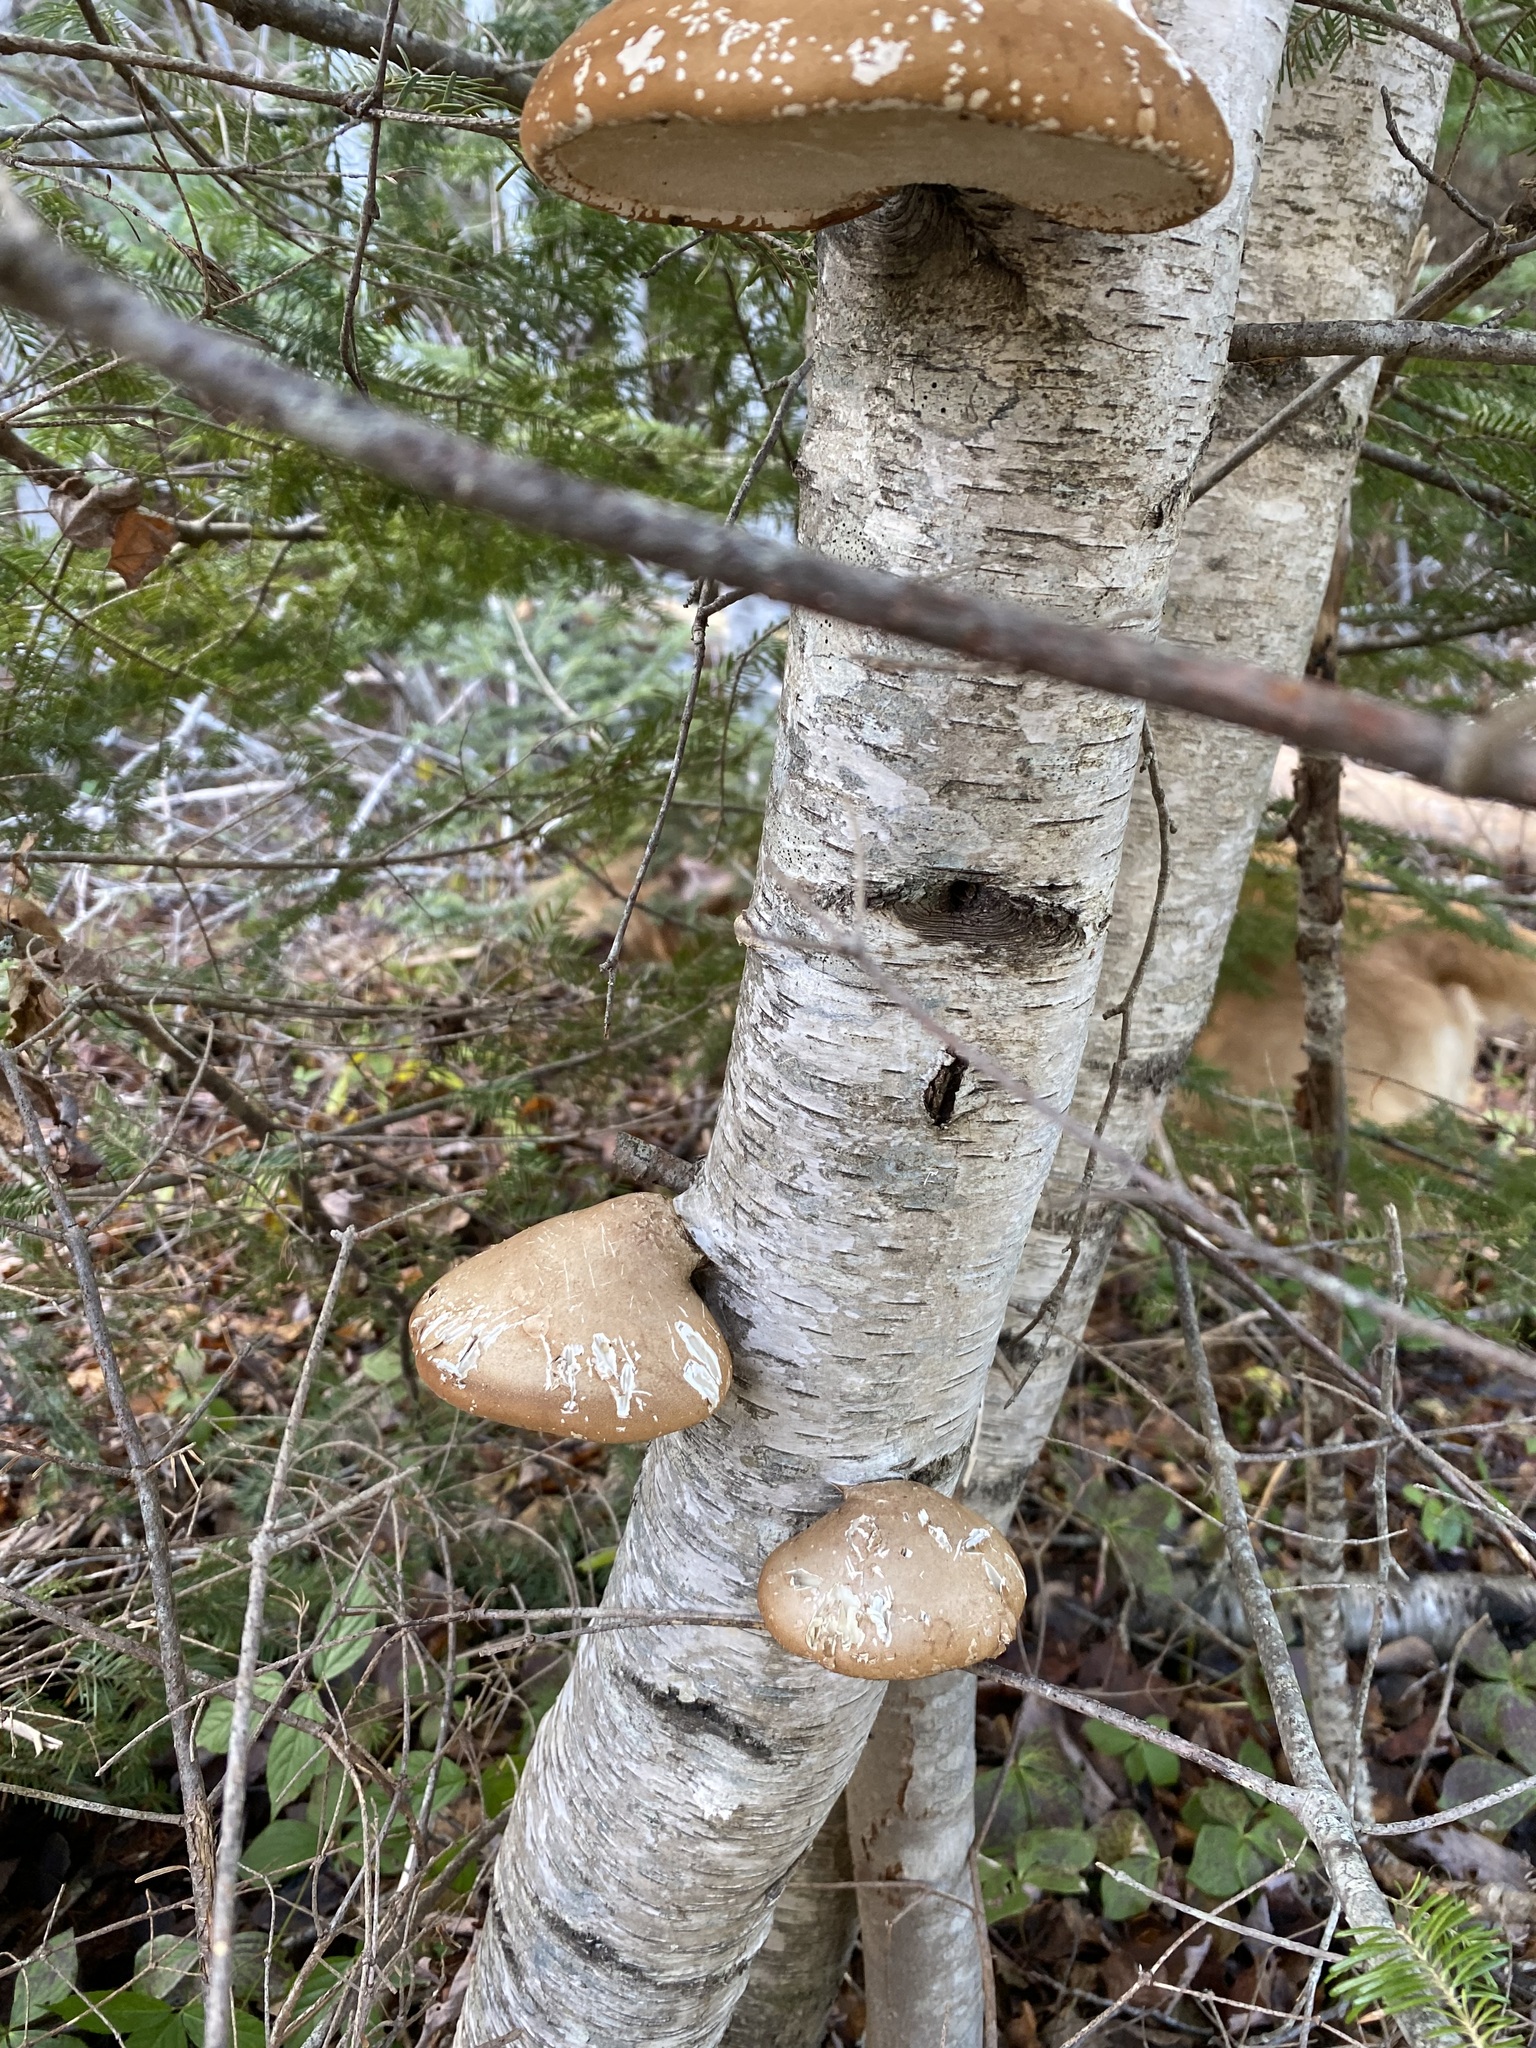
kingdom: Fungi
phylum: Basidiomycota
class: Agaricomycetes
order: Polyporales
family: Fomitopsidaceae
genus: Fomitopsis
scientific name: Fomitopsis betulina
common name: Birch polypore
